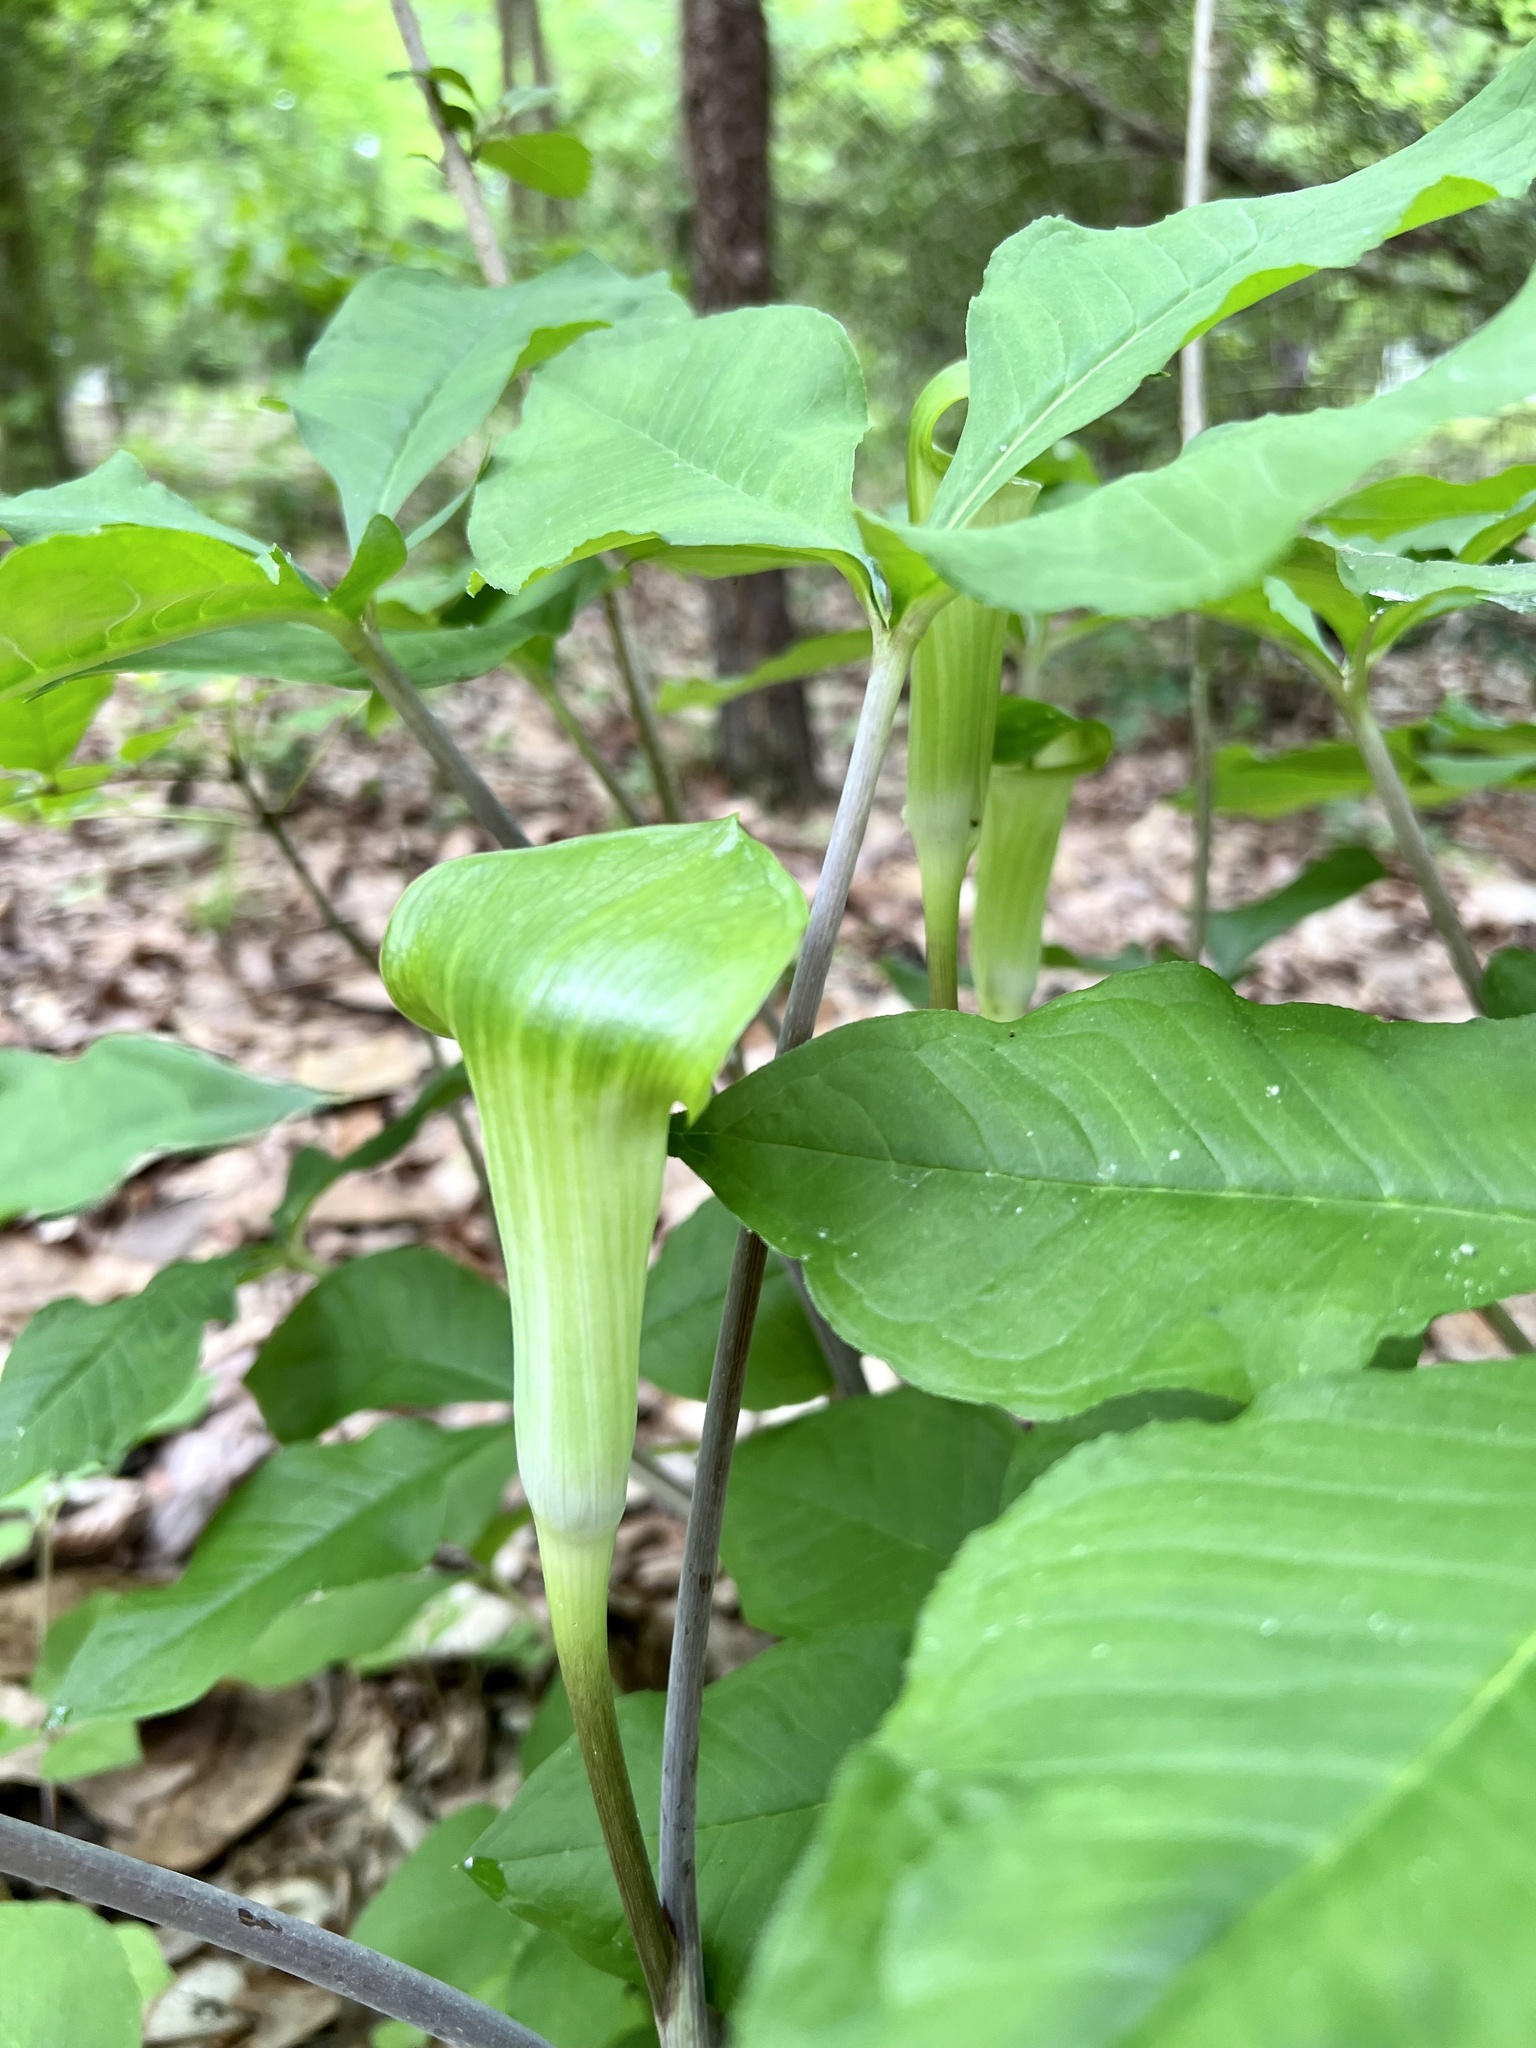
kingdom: Plantae
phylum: Tracheophyta
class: Liliopsida
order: Alismatales
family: Araceae
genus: Arisaema
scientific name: Arisaema quinatum
